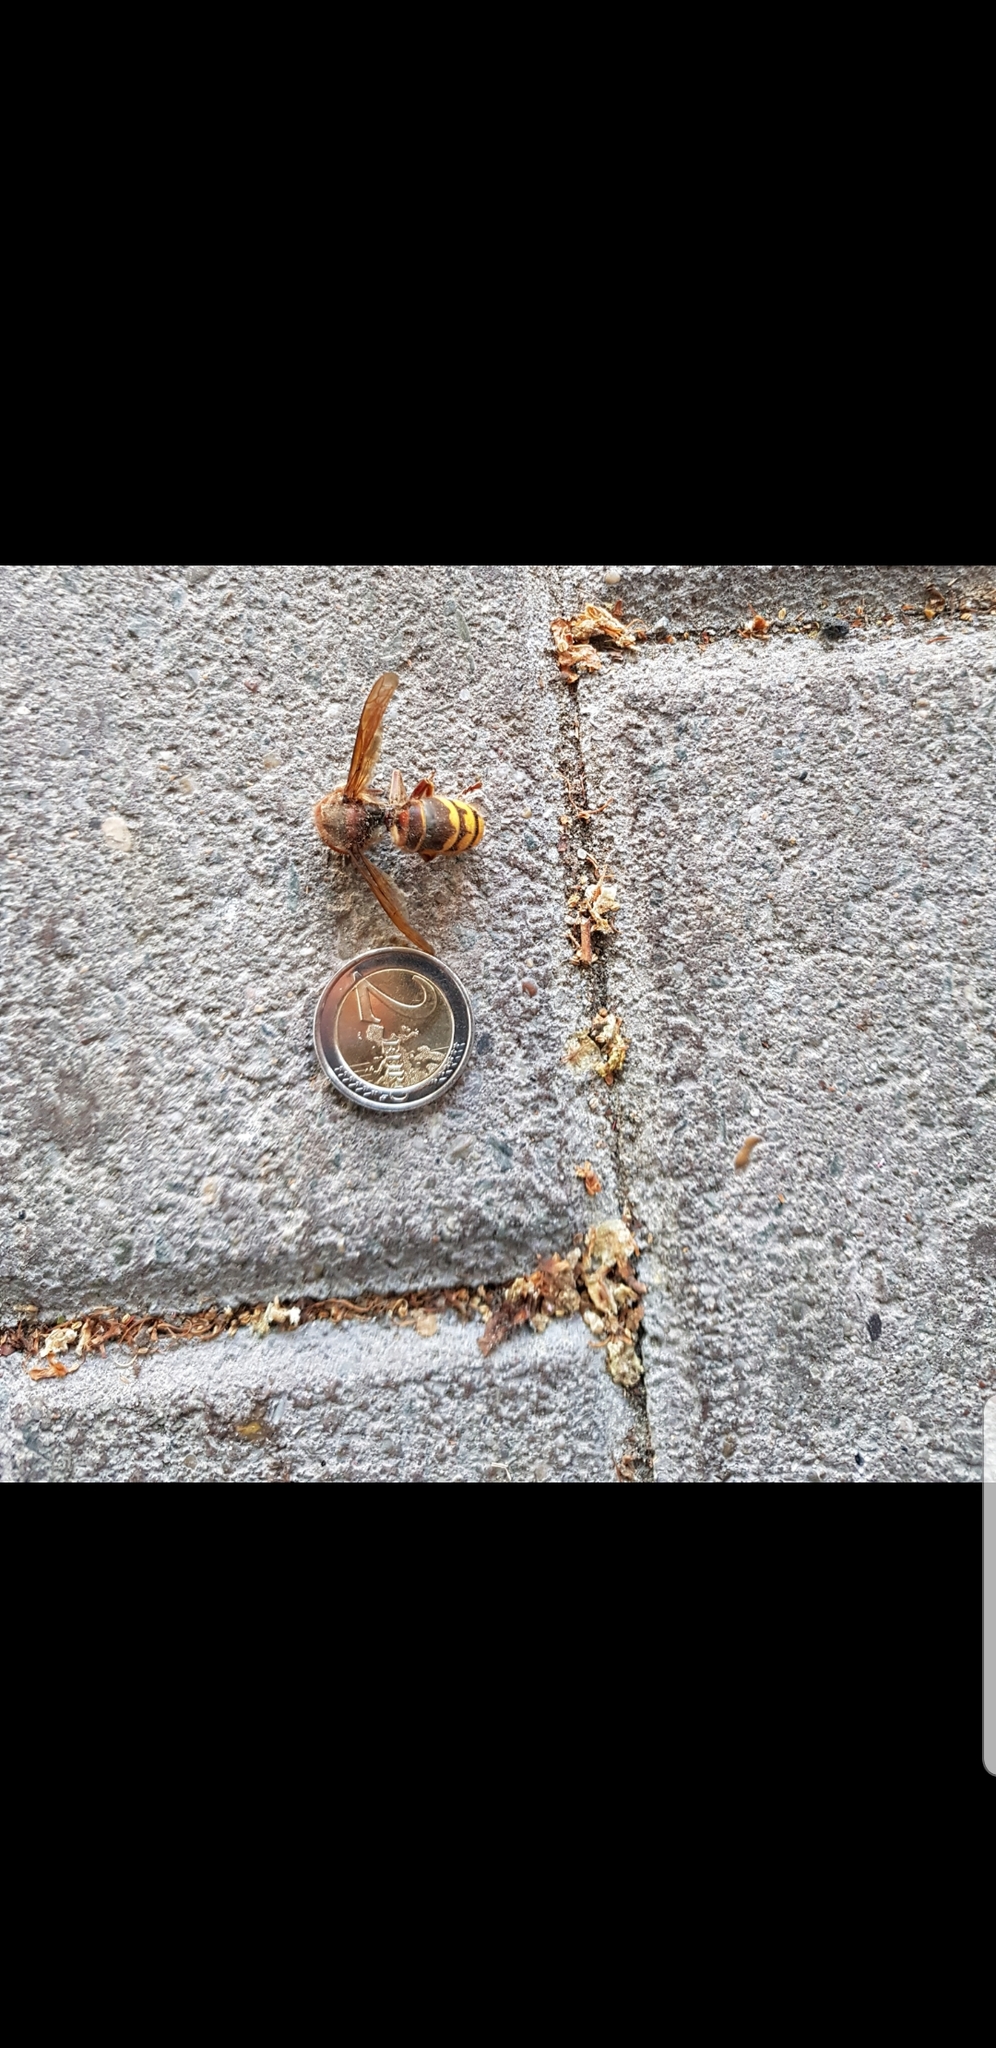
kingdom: Animalia
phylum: Arthropoda
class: Insecta
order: Hymenoptera
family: Vespidae
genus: Vespa
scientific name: Vespa crabro
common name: Hornet
